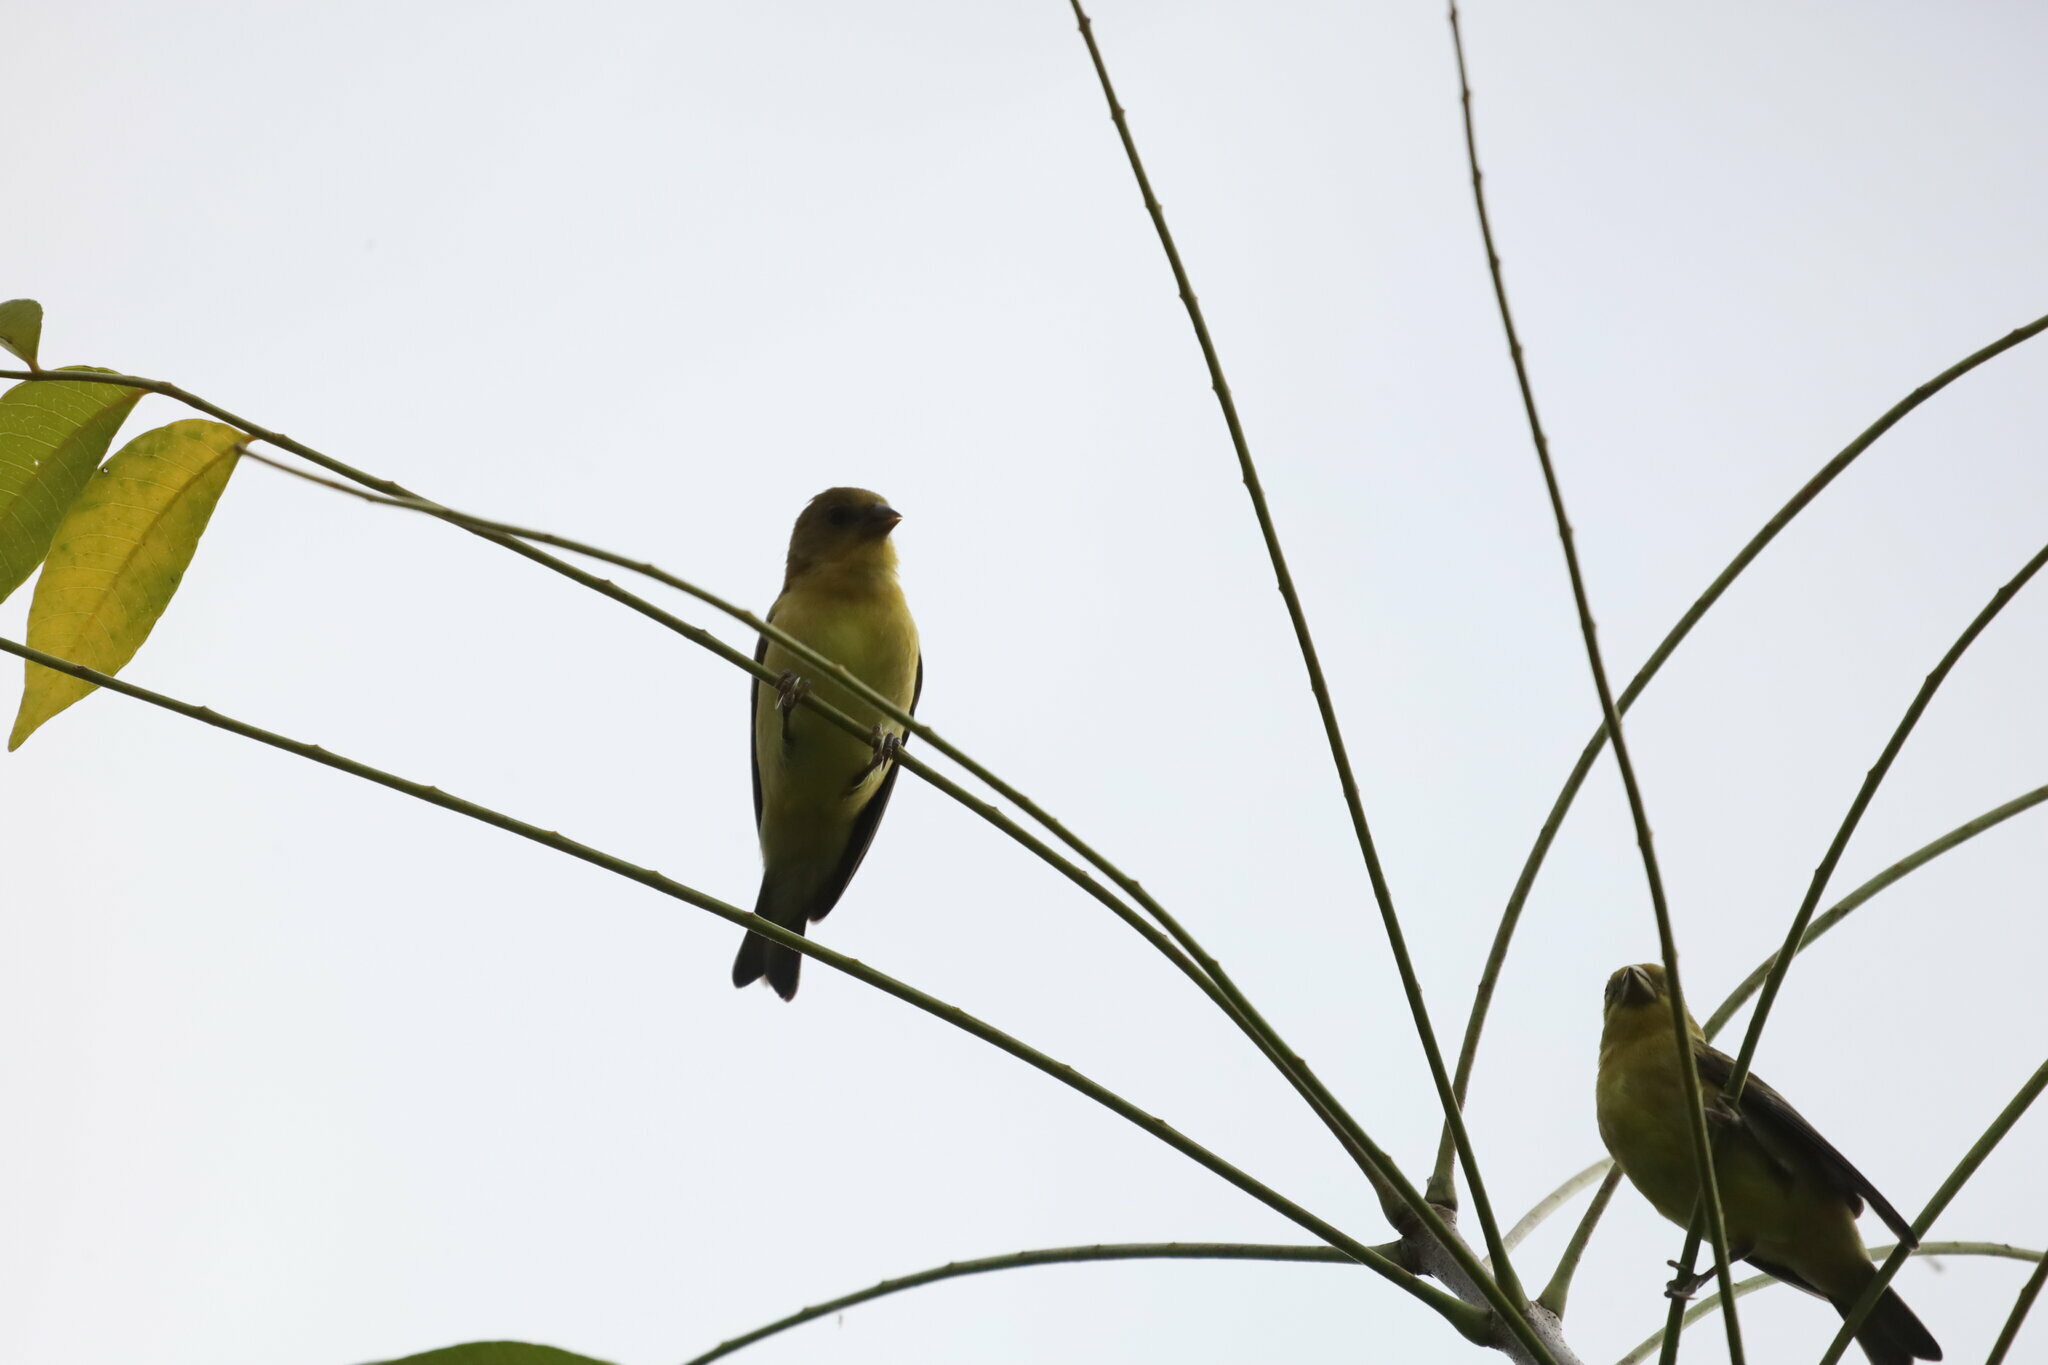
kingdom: Animalia
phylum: Chordata
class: Aves
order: Passeriformes
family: Fringillidae
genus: Spinus
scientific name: Spinus psaltria
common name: Lesser goldfinch
